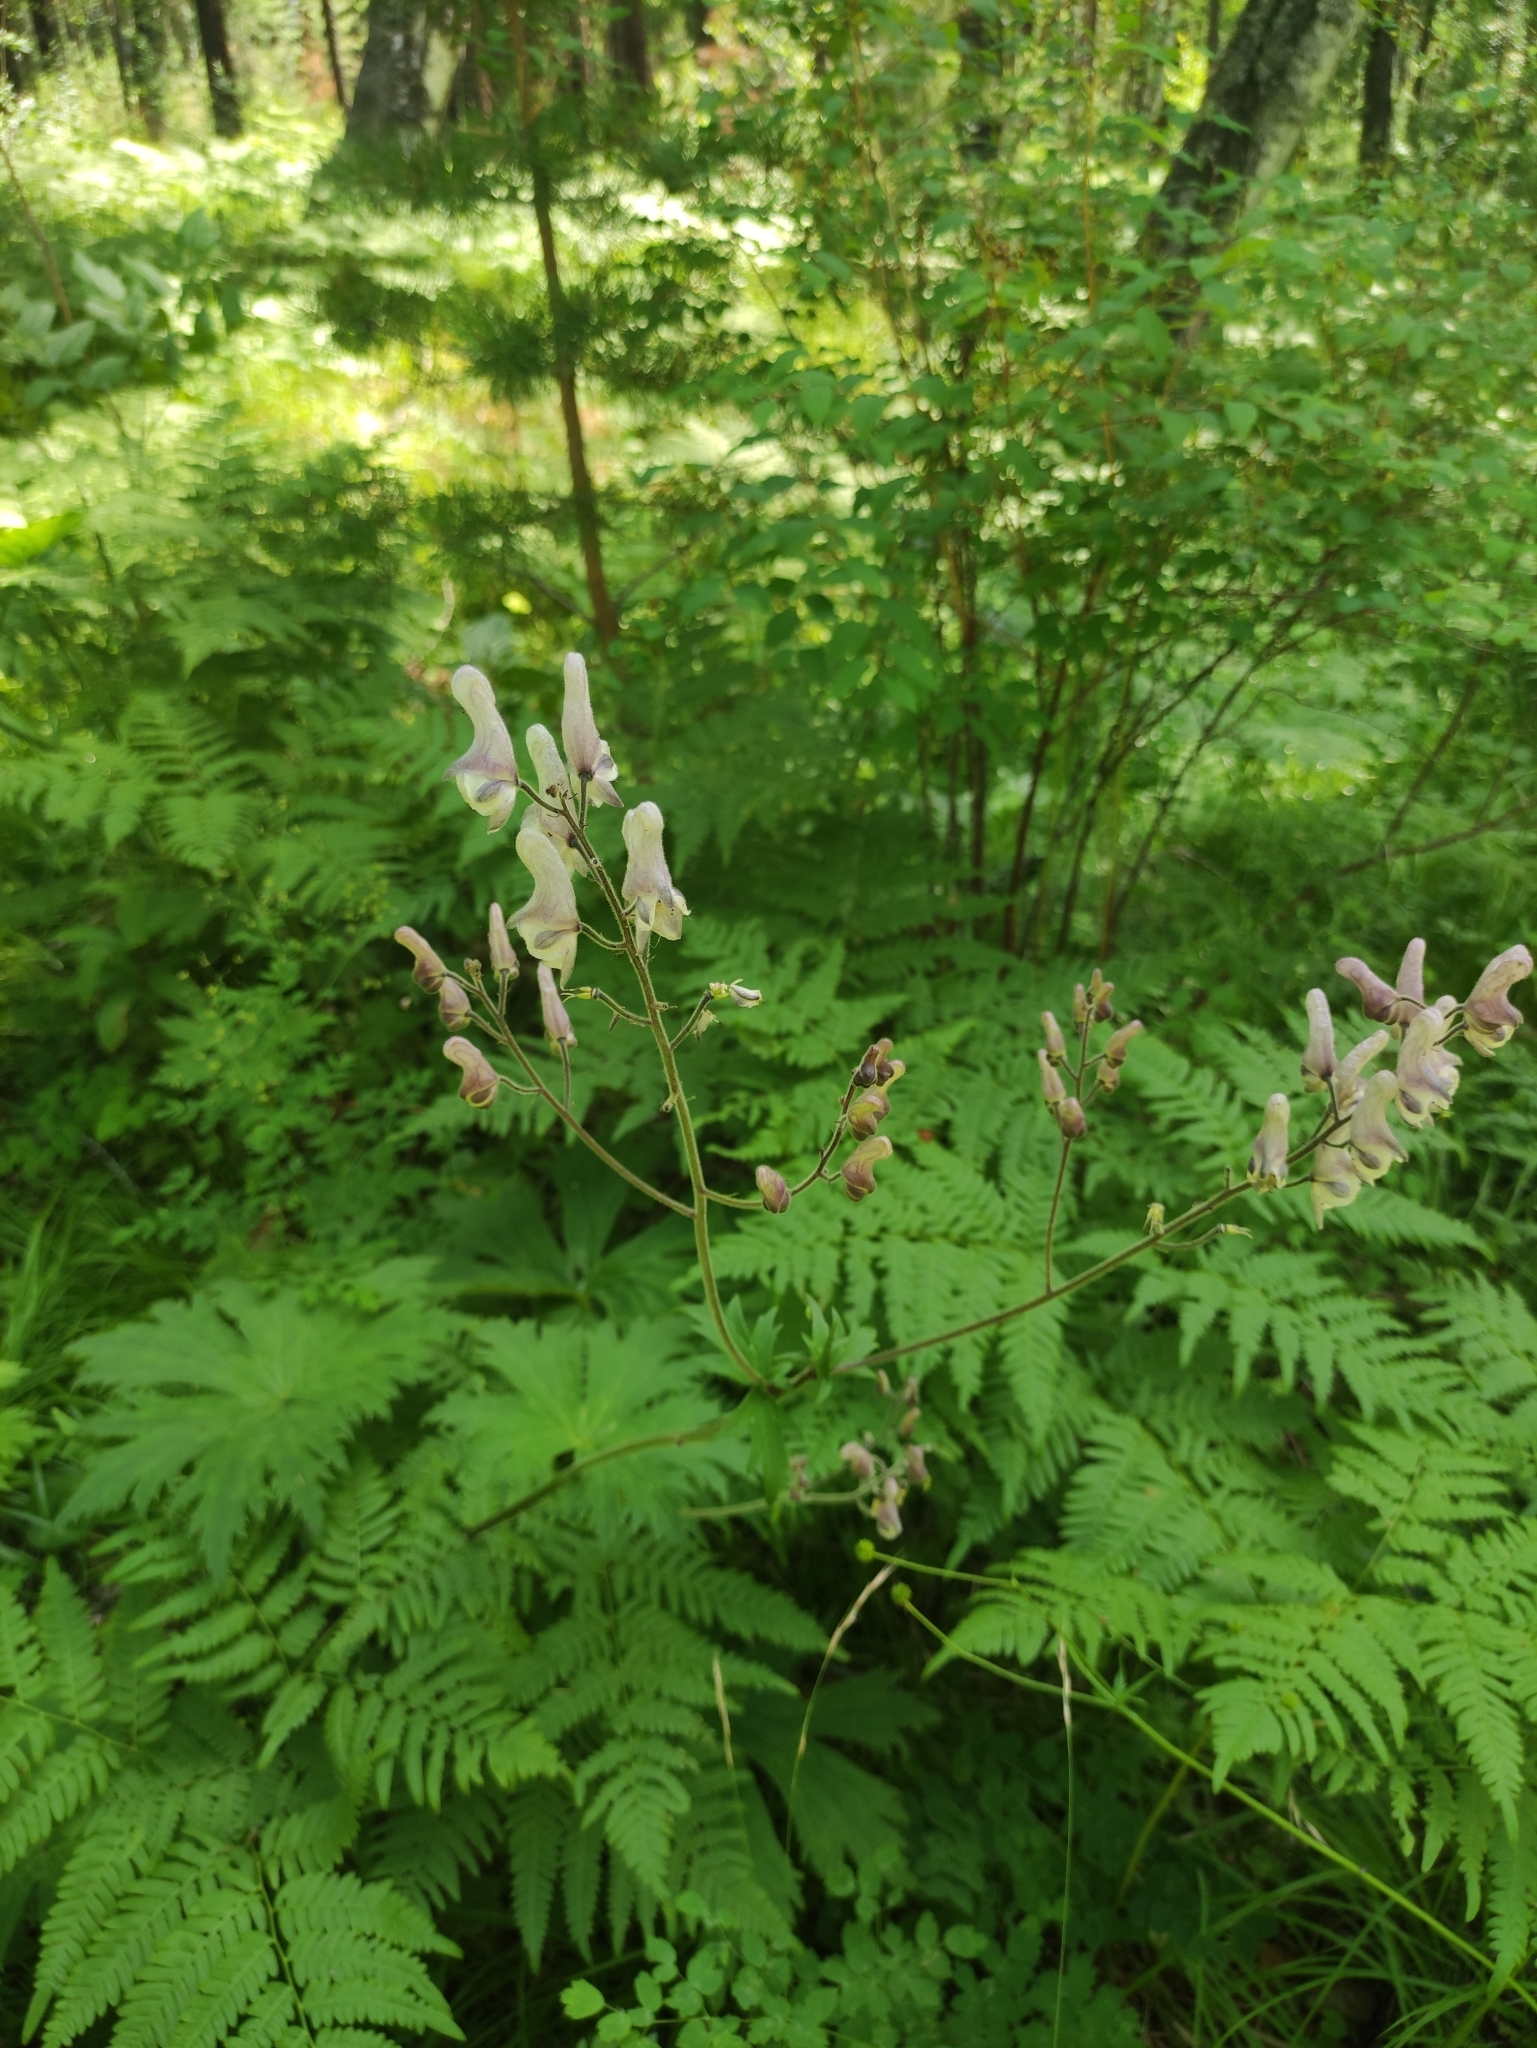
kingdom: Plantae
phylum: Tracheophyta
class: Magnoliopsida
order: Ranunculales
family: Ranunculaceae
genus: Aconitum
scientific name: Aconitum septentrionale
